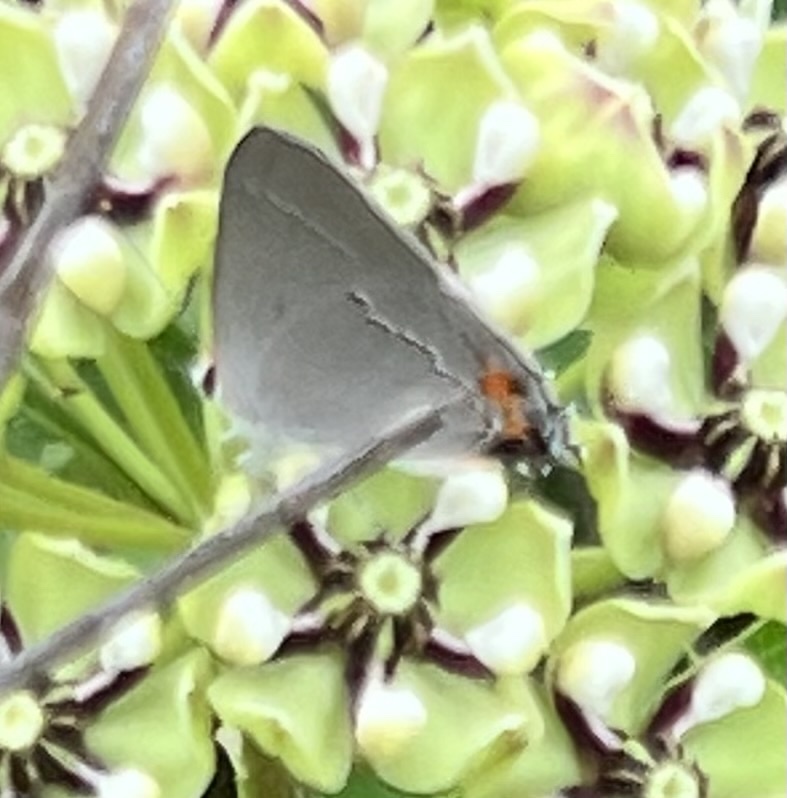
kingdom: Animalia
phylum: Arthropoda
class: Insecta
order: Lepidoptera
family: Lycaenidae
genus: Strymon
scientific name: Strymon melinus
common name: Gray hairstreak
